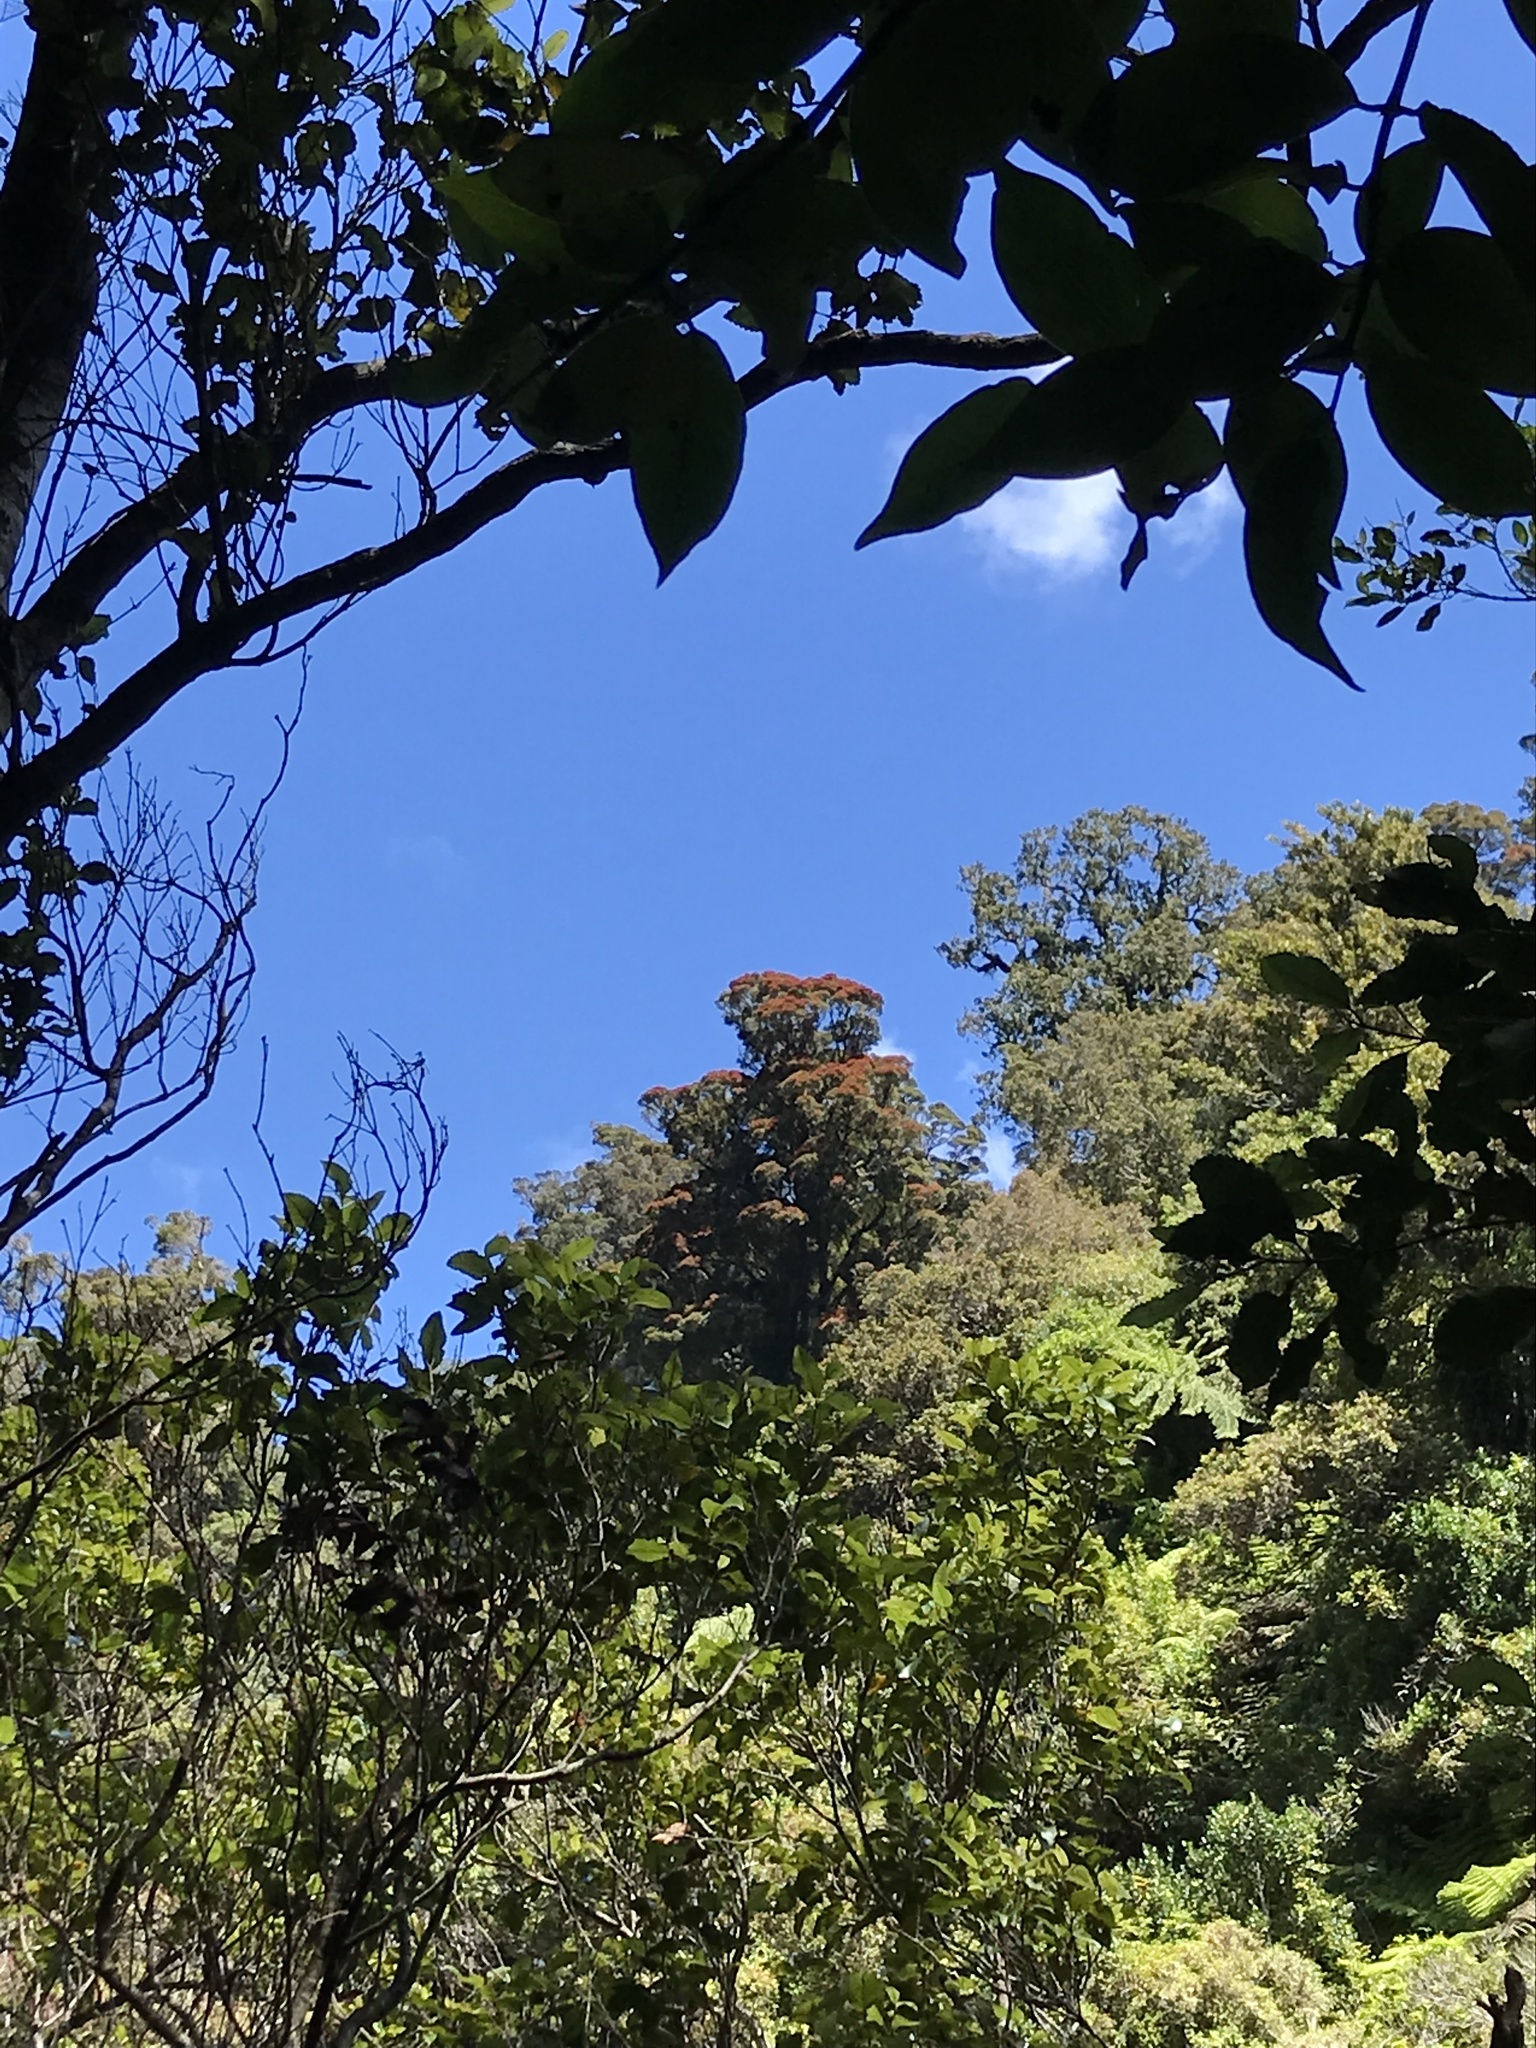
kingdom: Plantae
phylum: Tracheophyta
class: Magnoliopsida
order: Myrtales
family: Myrtaceae
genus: Metrosideros
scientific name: Metrosideros robusta
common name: Northern rata
